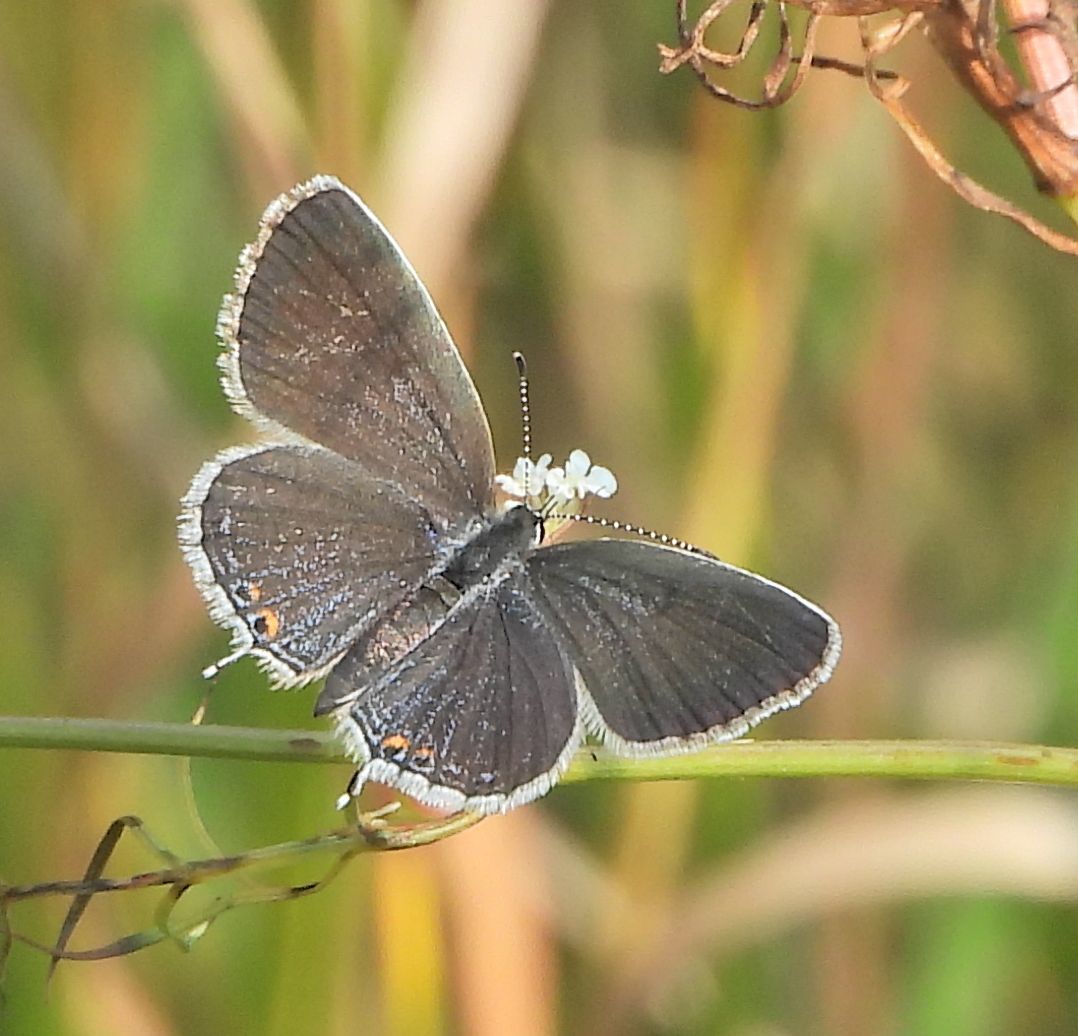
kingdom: Animalia
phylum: Arthropoda
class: Insecta
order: Lepidoptera
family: Lycaenidae
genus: Elkalyce
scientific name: Elkalyce comyntas
